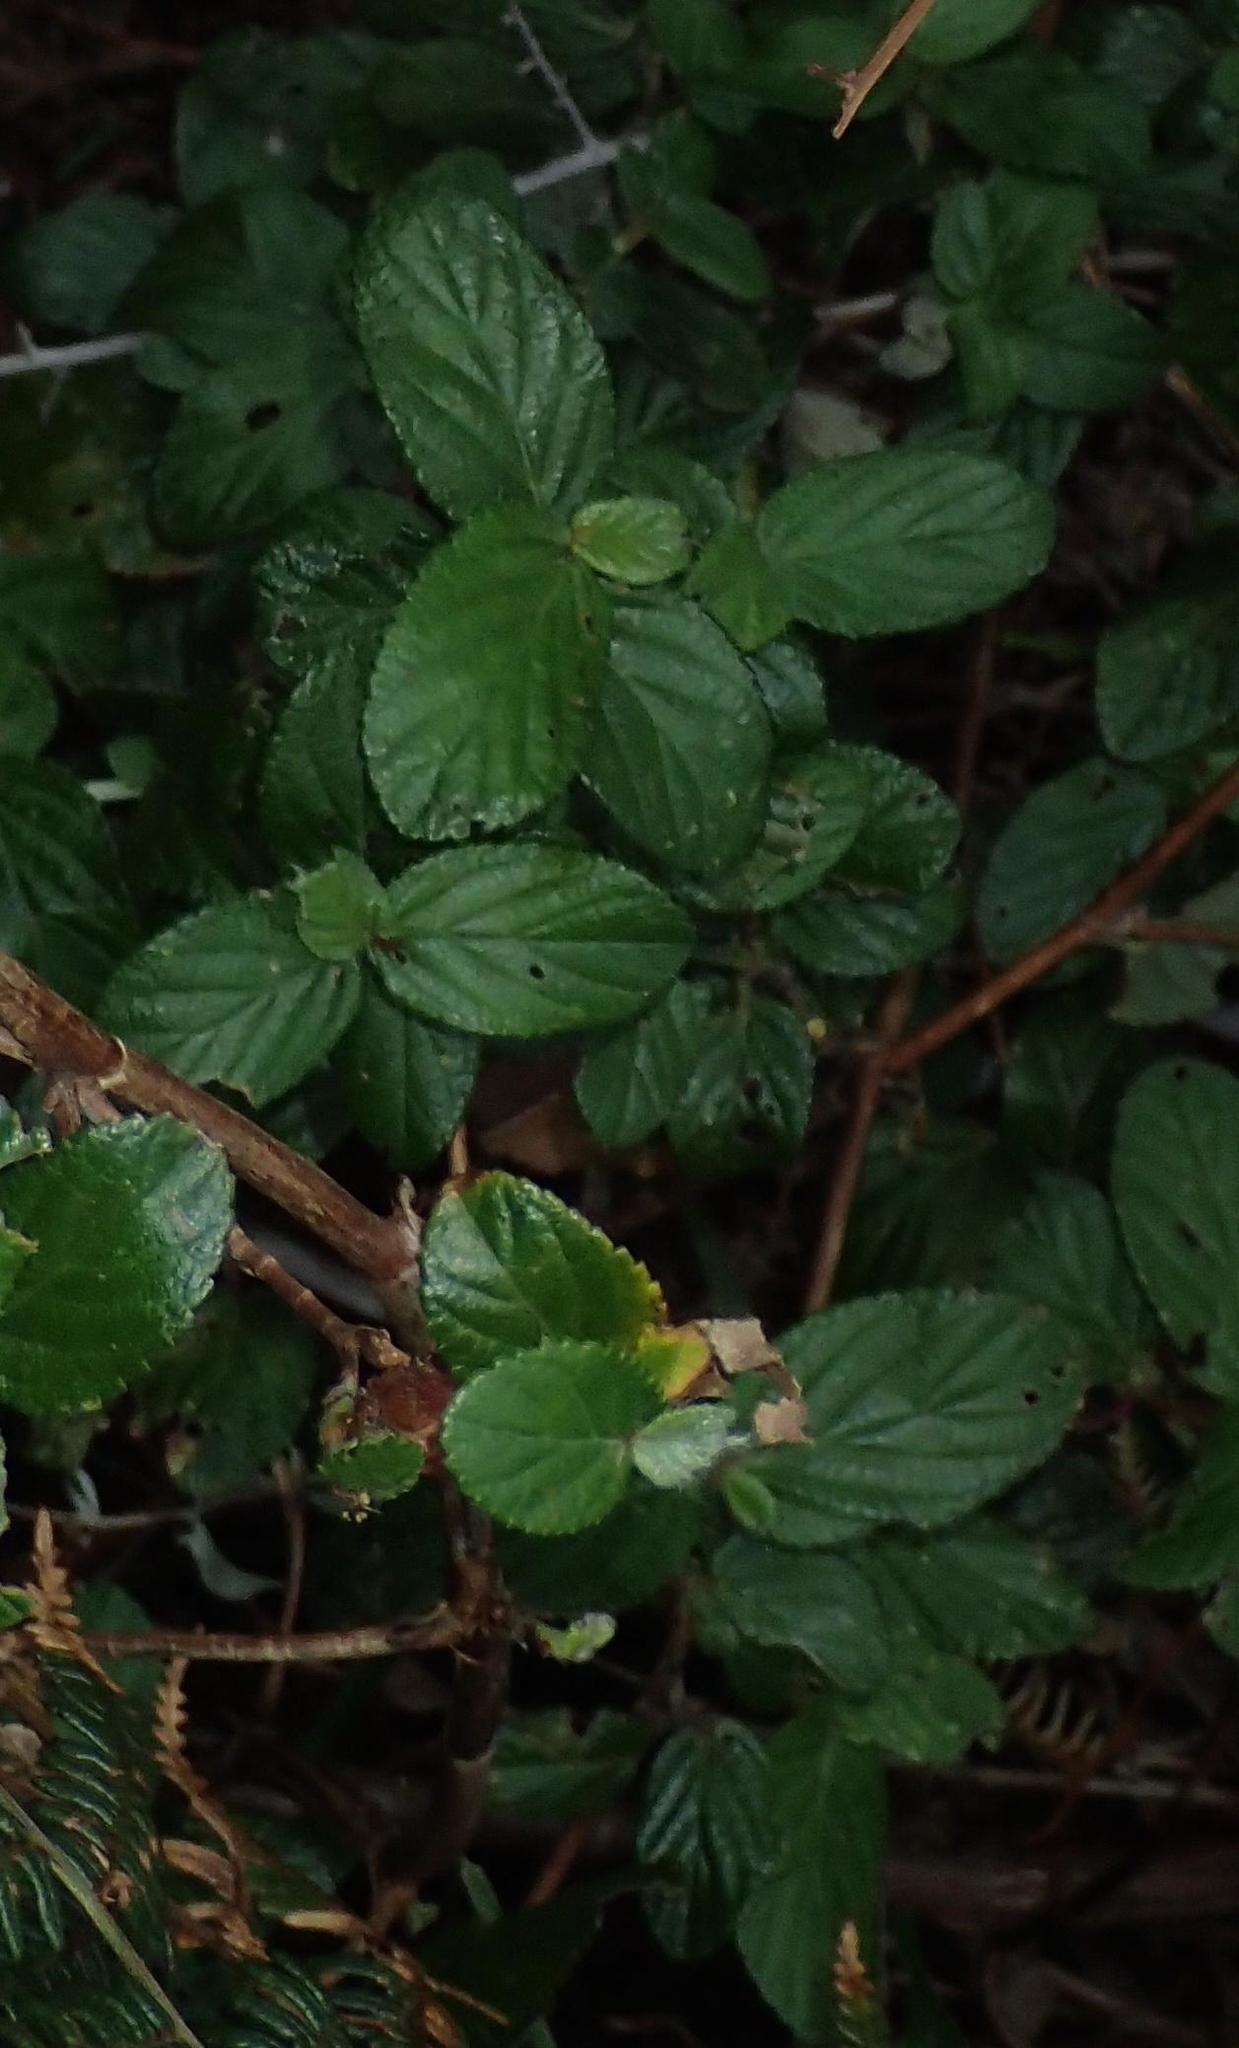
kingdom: Plantae
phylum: Tracheophyta
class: Magnoliopsida
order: Rosales
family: Rosaceae
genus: Cliffortia
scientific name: Cliffortia odorata
